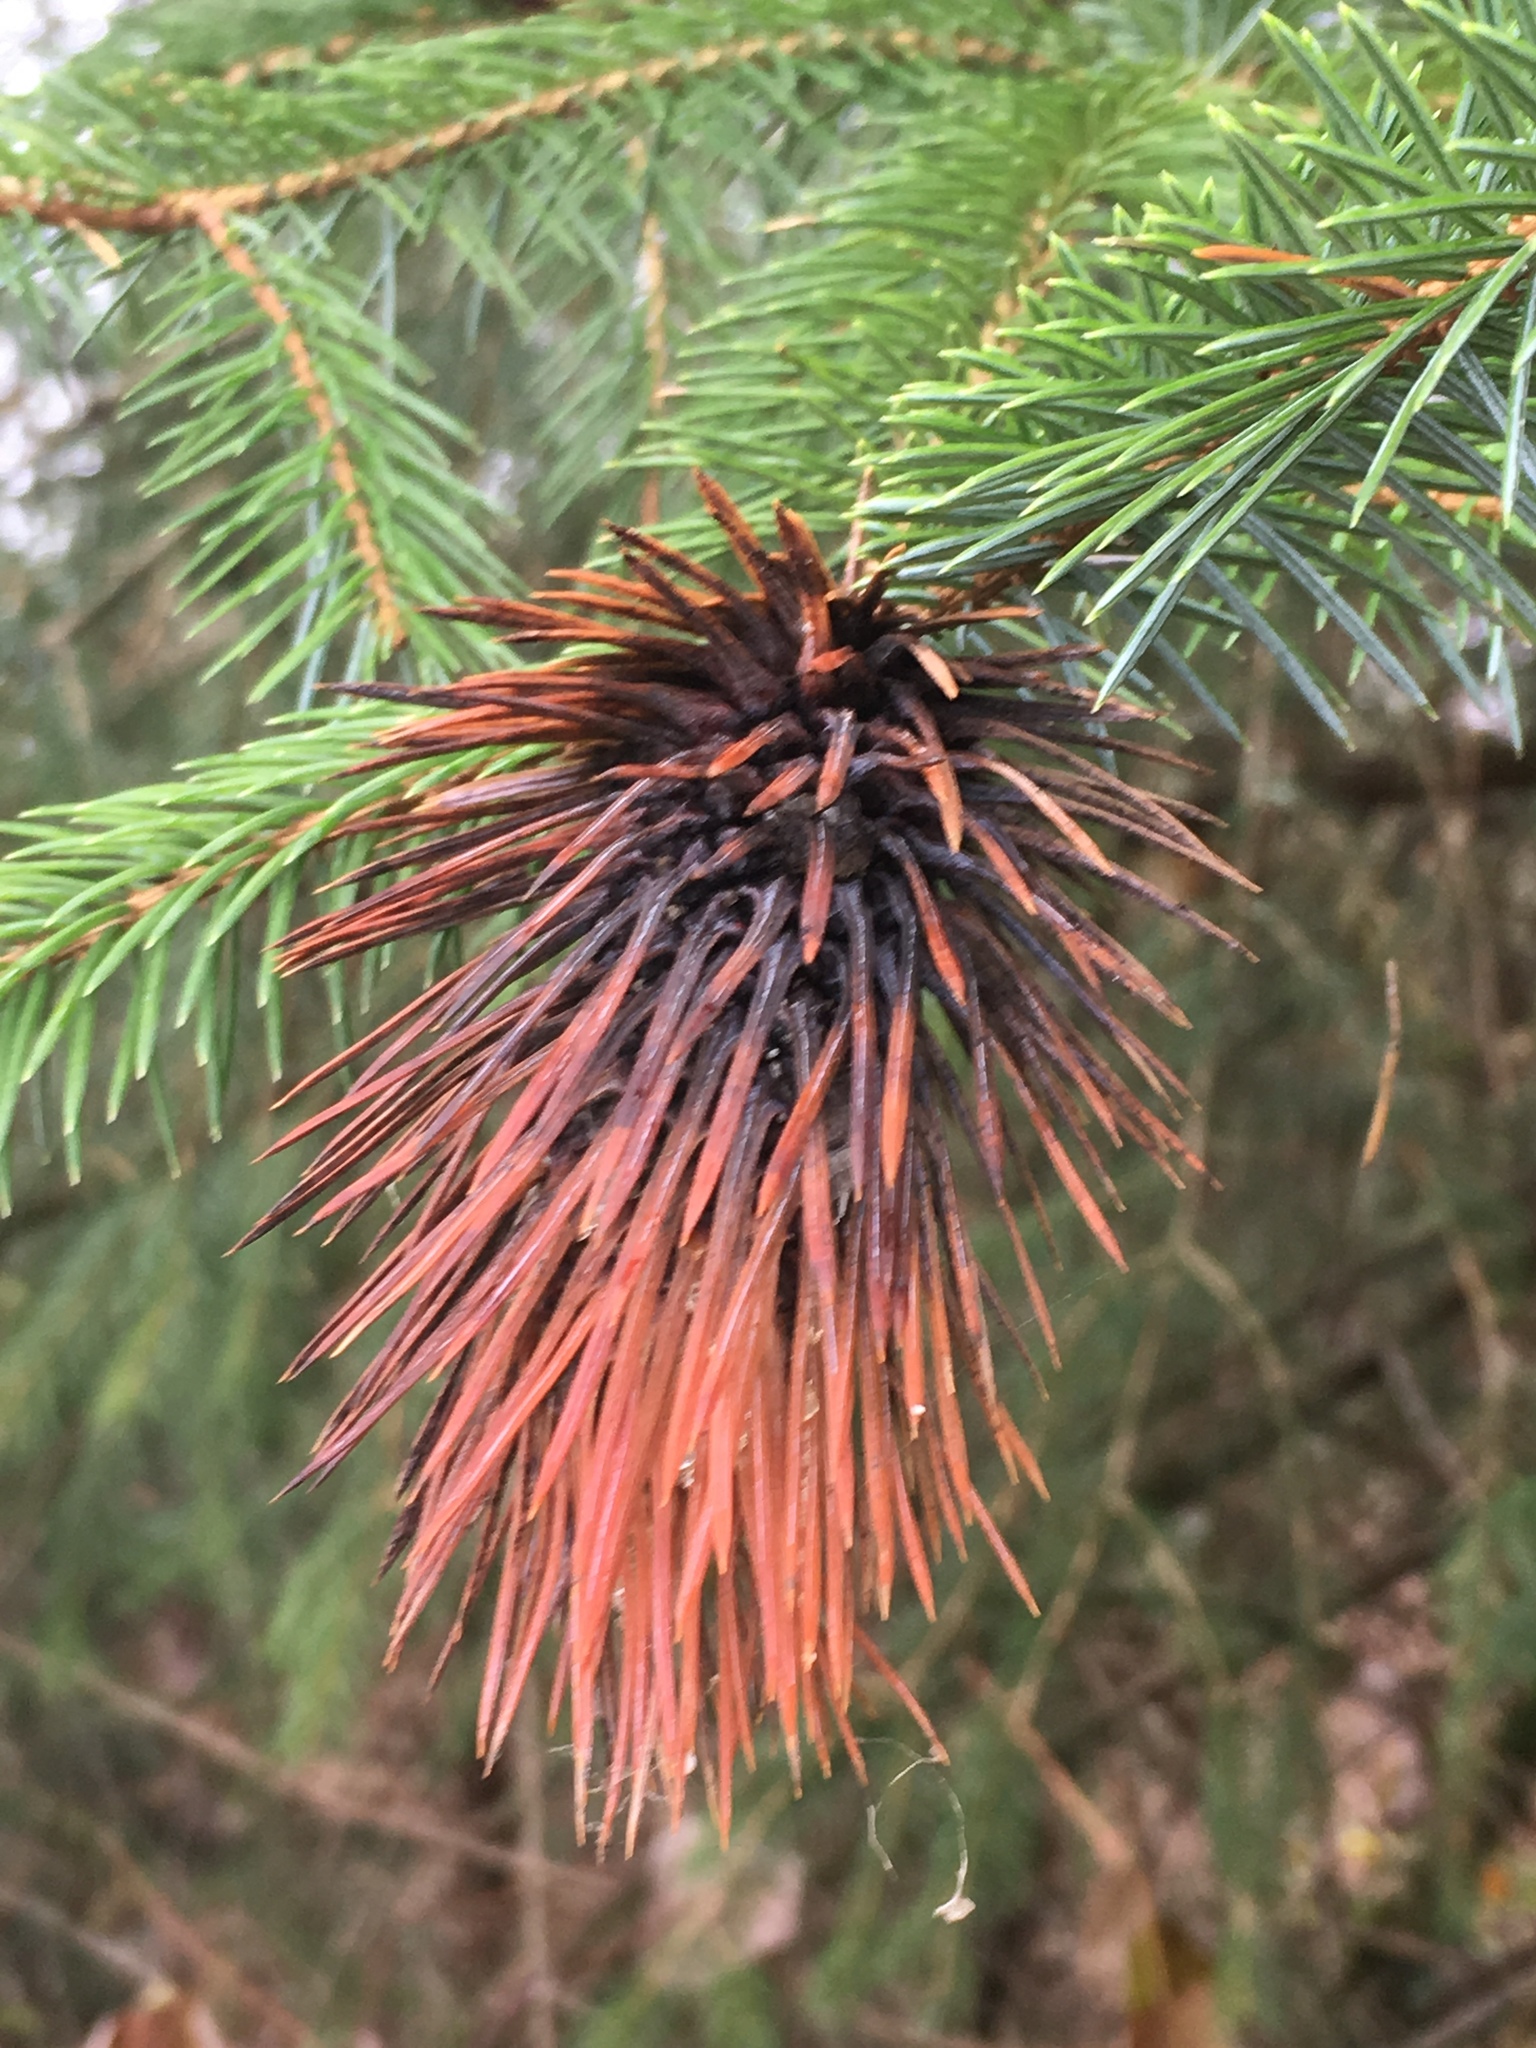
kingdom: Plantae
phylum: Tracheophyta
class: Pinopsida
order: Pinales
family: Pinaceae
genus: Picea
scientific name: Picea sitchensis
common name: Sitka spruce
